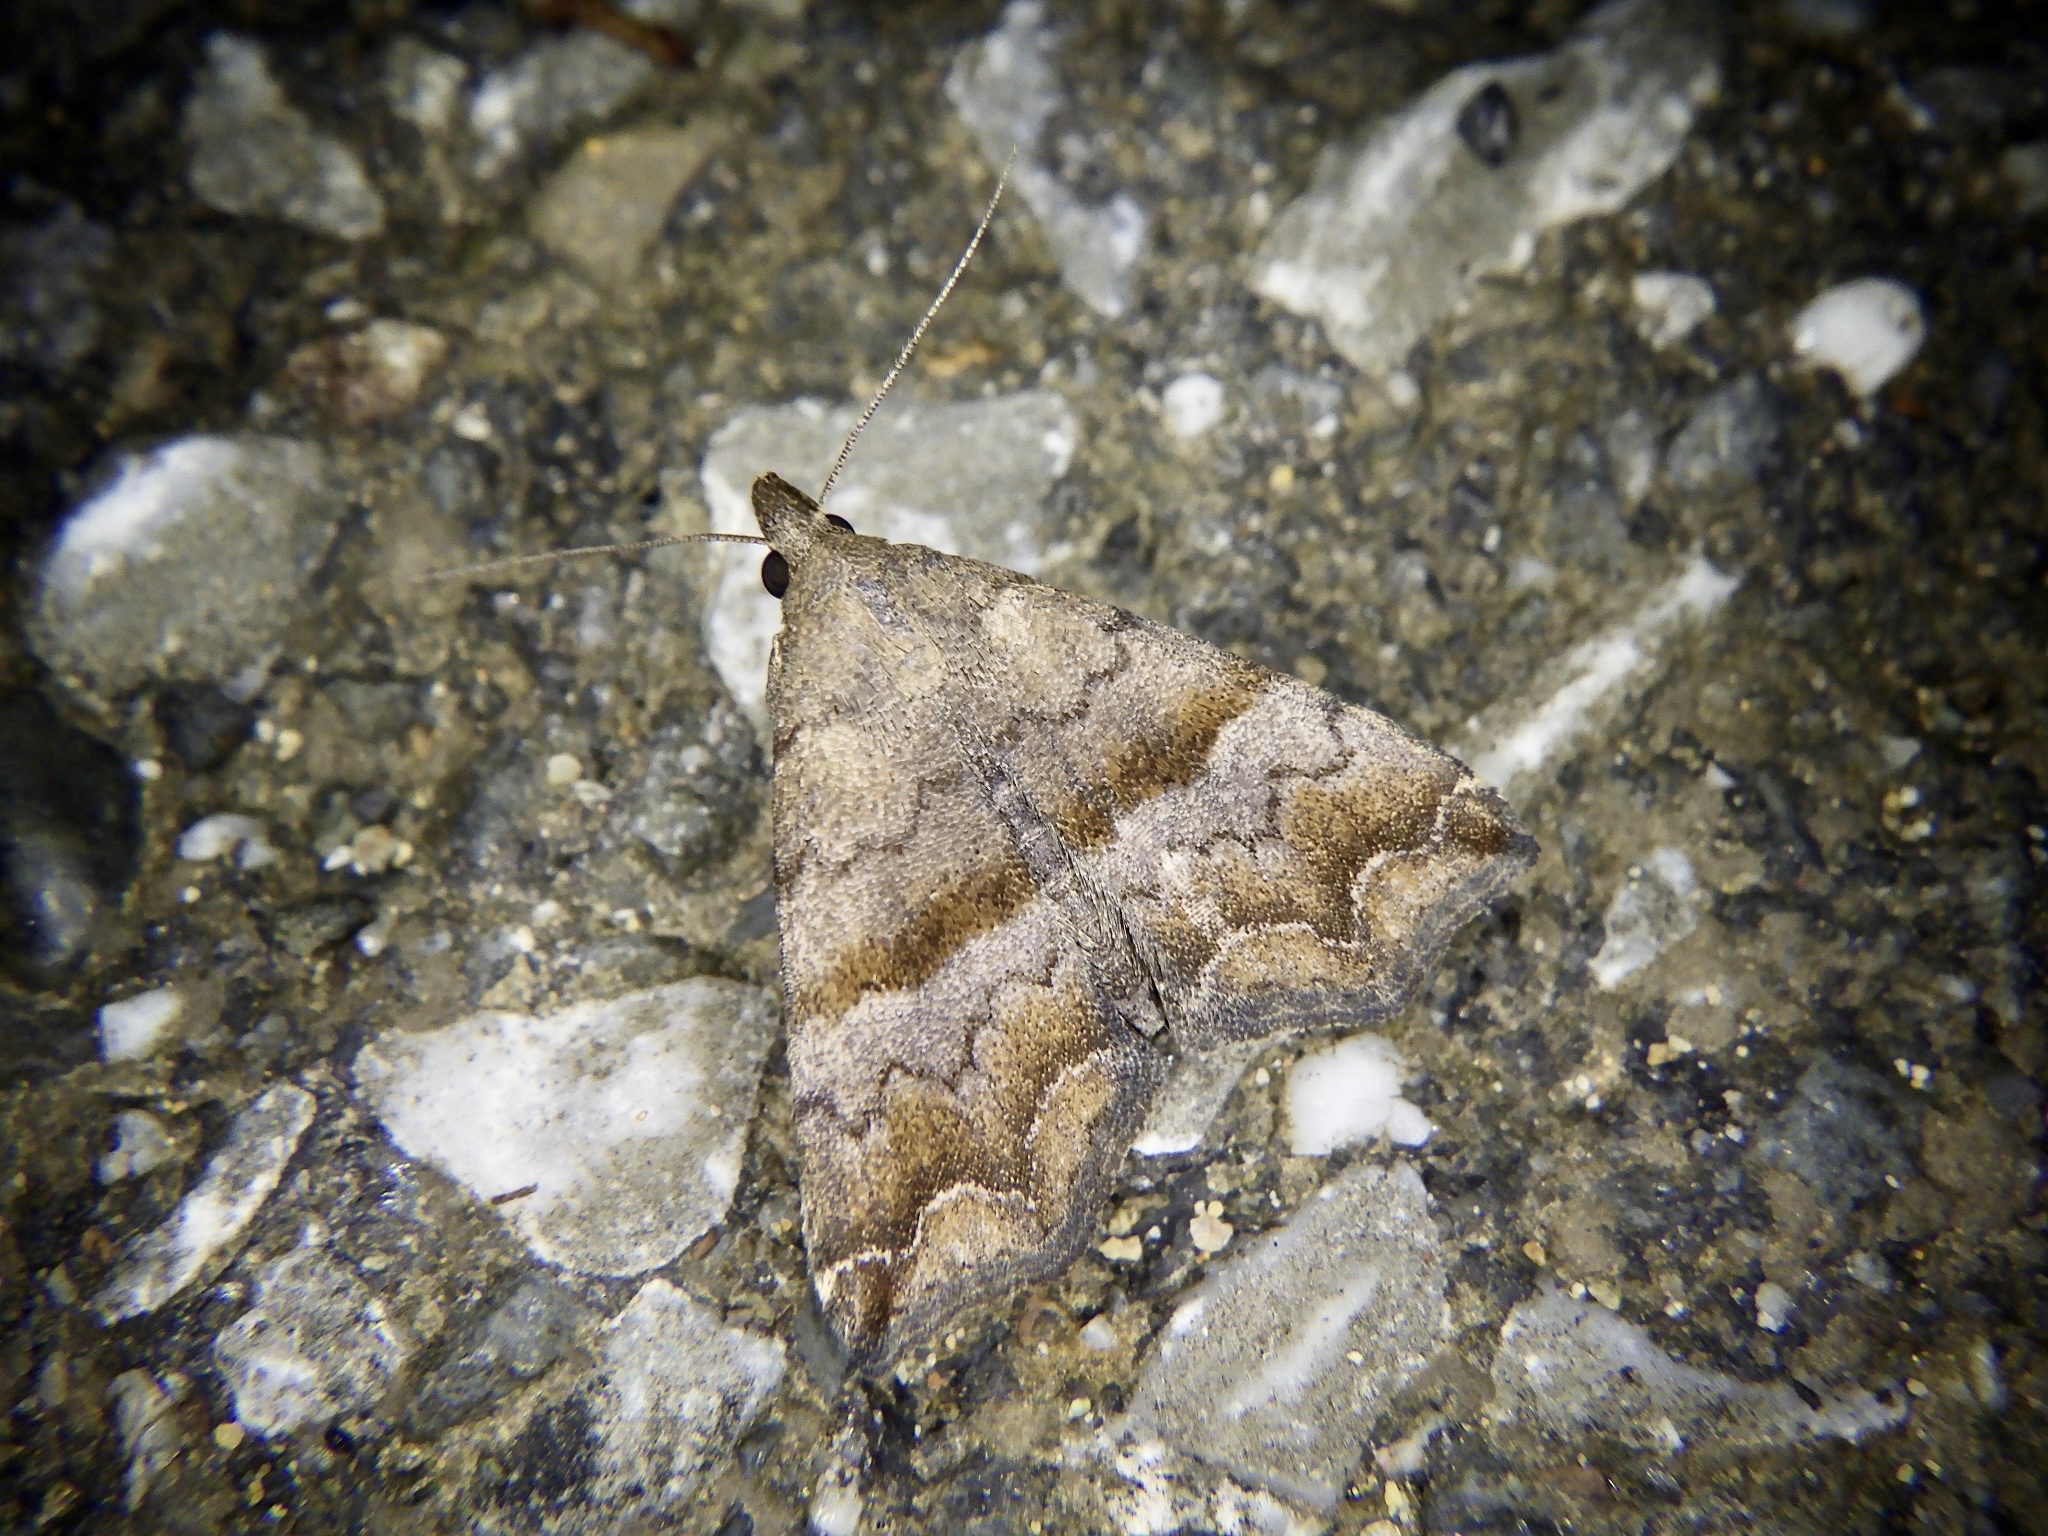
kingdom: Animalia
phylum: Arthropoda
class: Insecta
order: Lepidoptera
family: Erebidae
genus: Polypogon
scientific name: Polypogon Hipoepa fractalis
